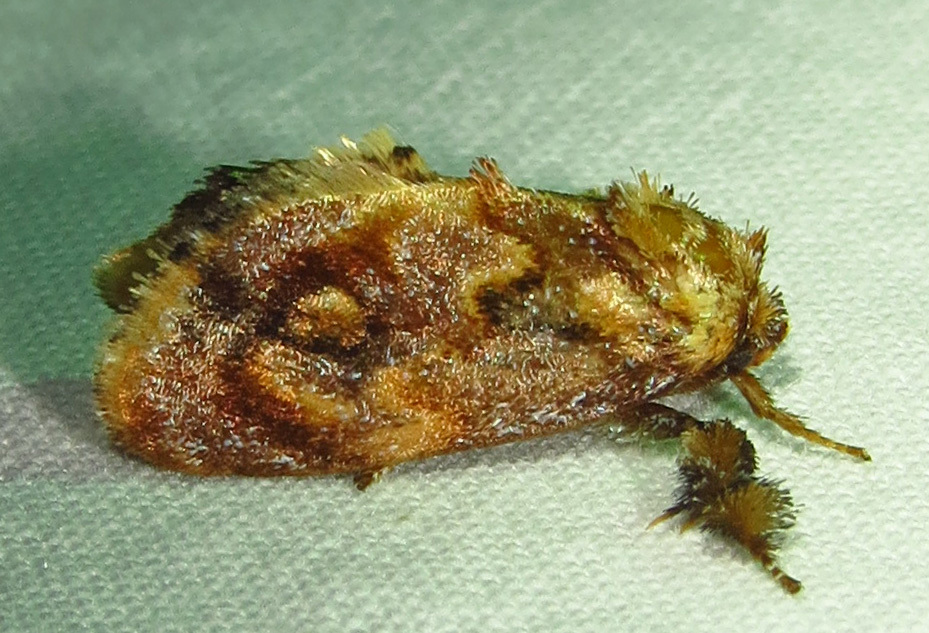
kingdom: Animalia
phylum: Arthropoda
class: Insecta
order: Lepidoptera
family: Limacodidae
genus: Isochaetes
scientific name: Isochaetes beutenmuelleri
